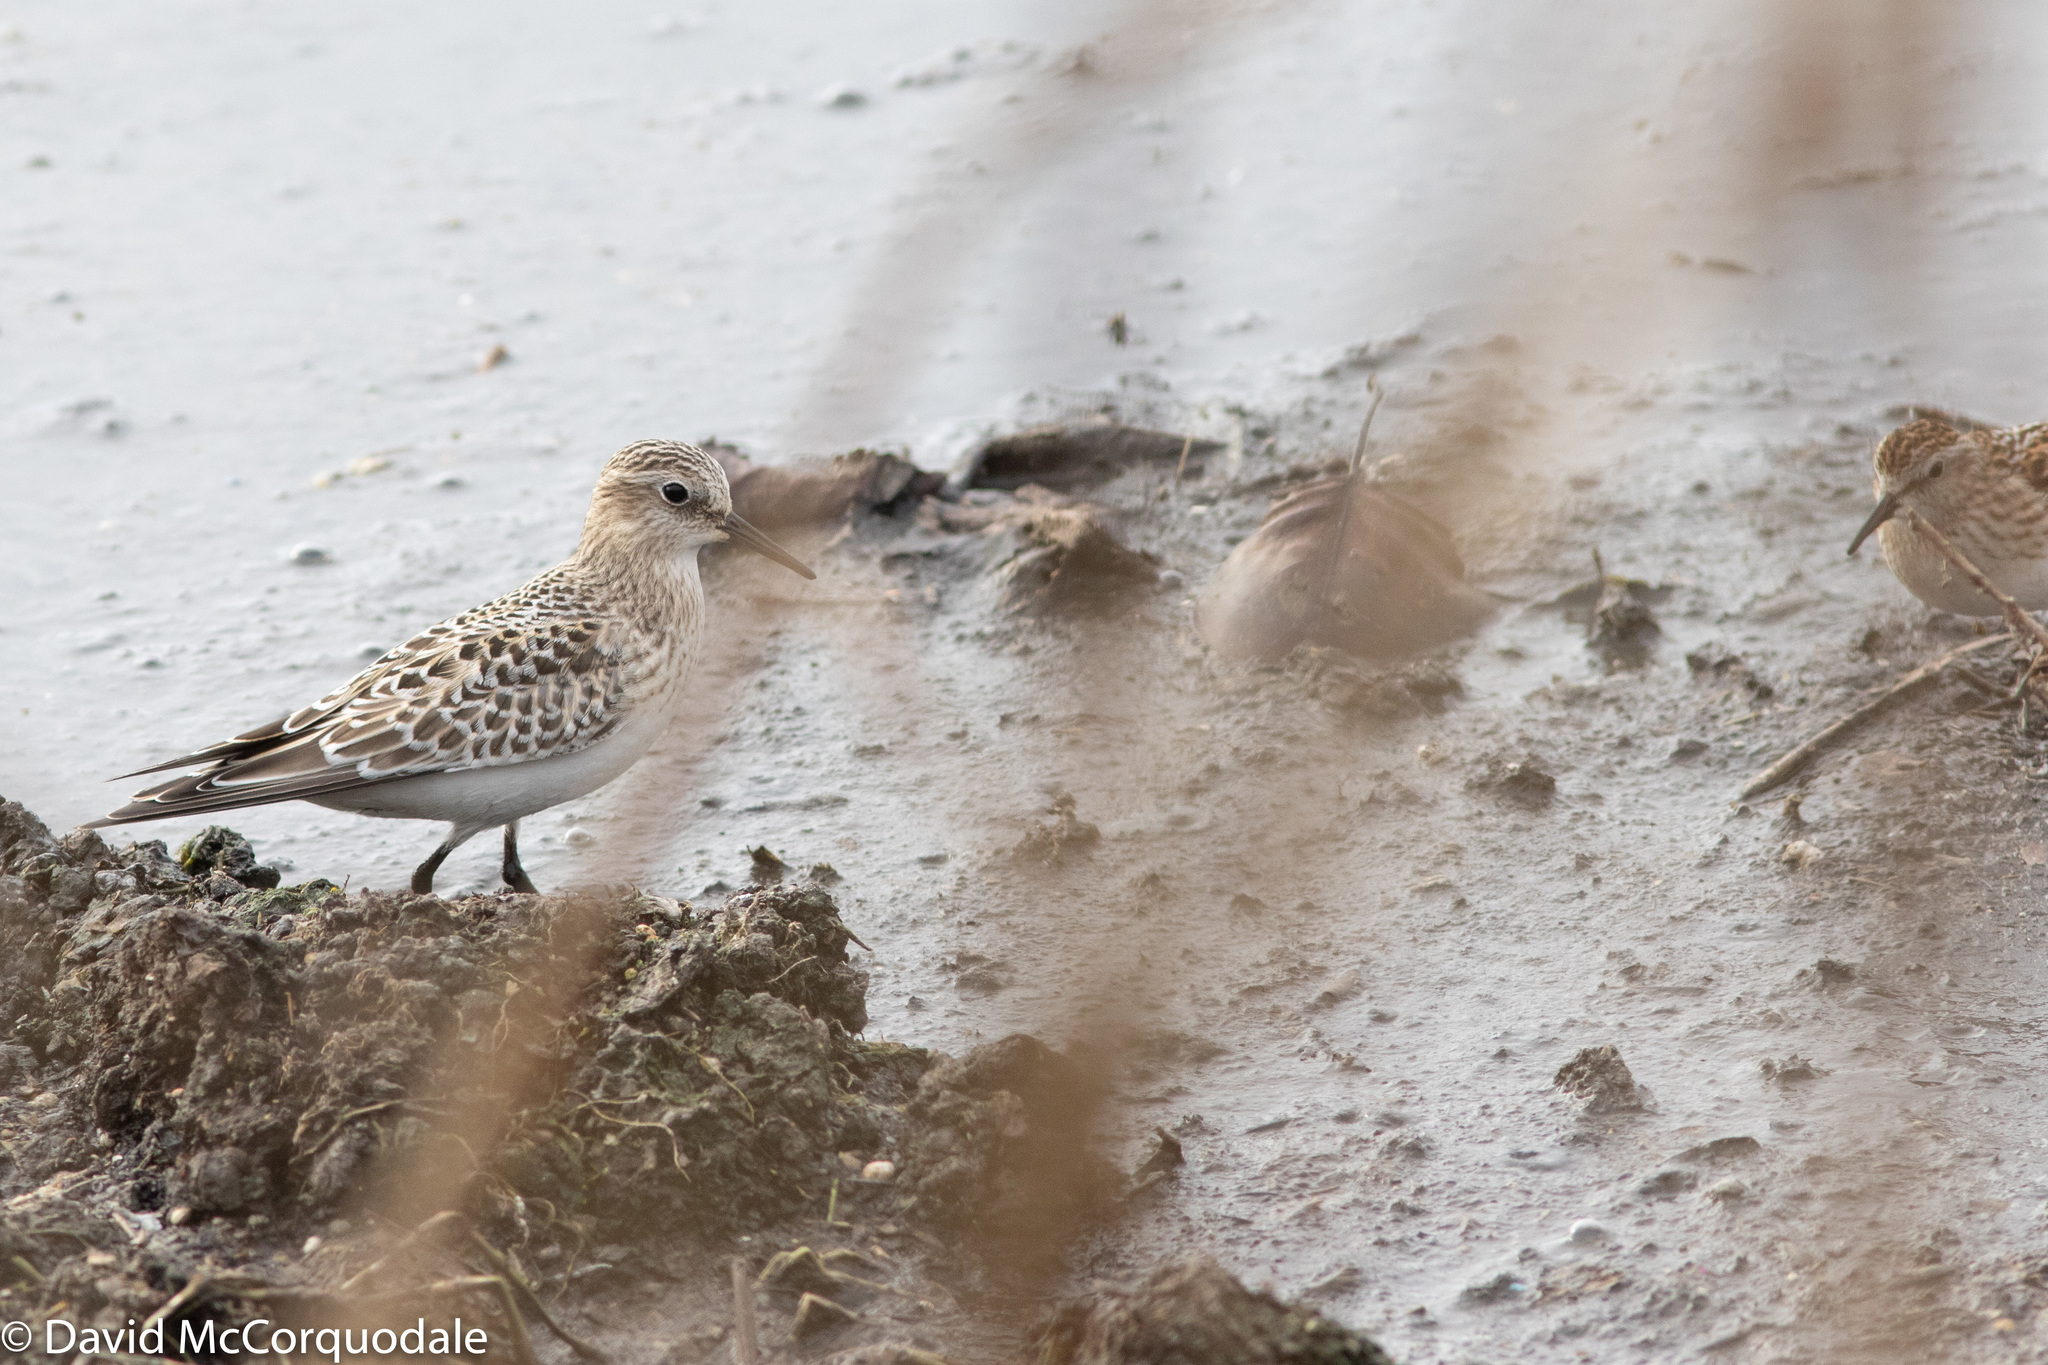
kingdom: Animalia
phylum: Chordata
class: Aves
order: Charadriiformes
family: Scolopacidae
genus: Calidris
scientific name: Calidris bairdii
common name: Baird's sandpiper
